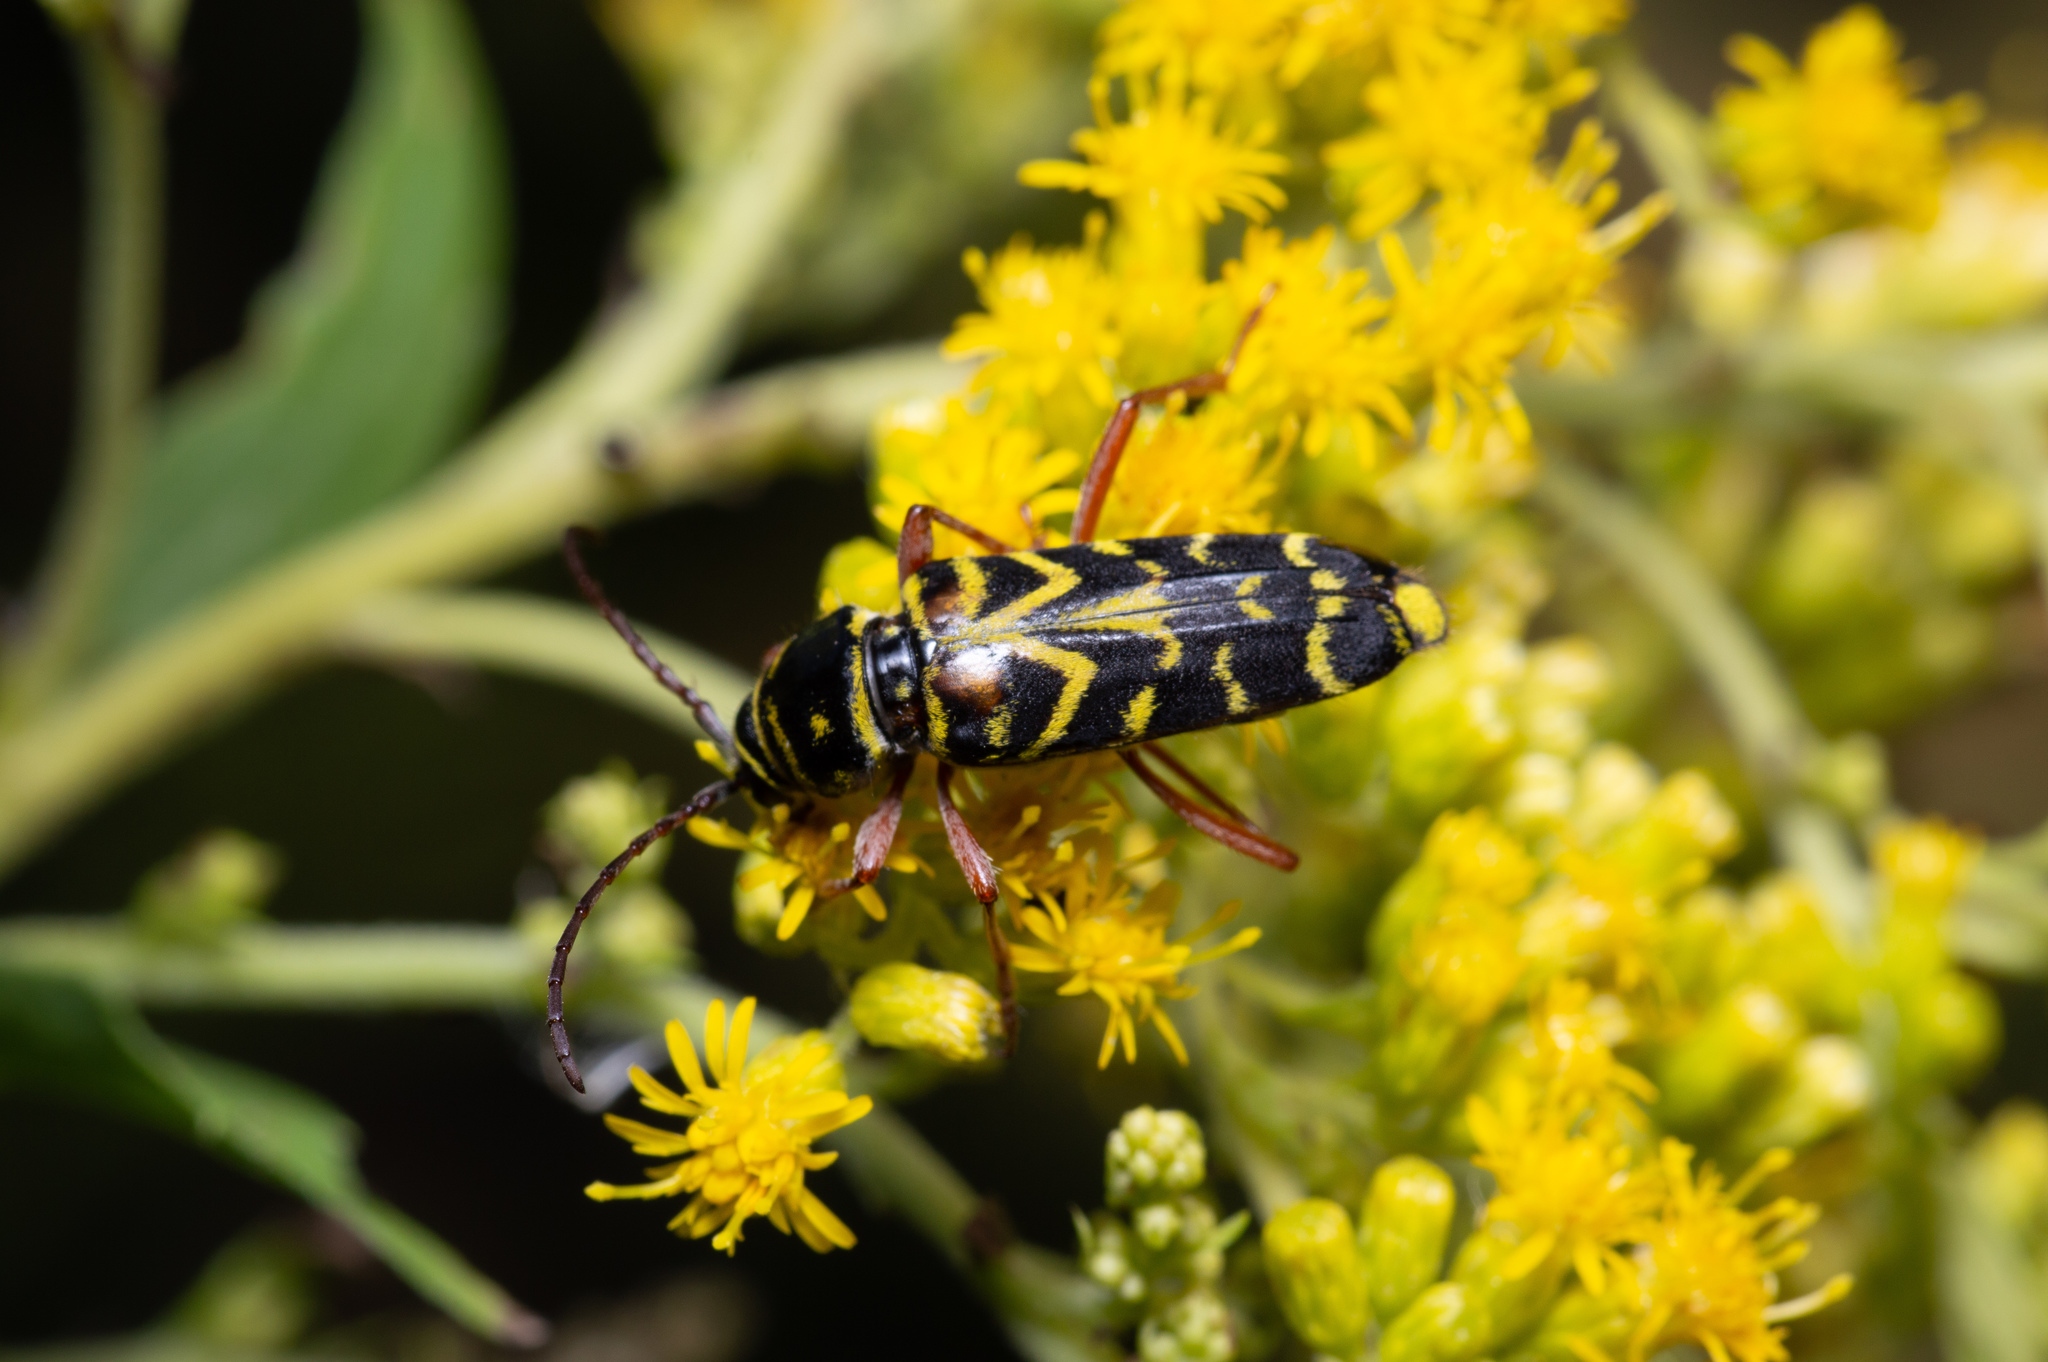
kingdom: Animalia
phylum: Arthropoda
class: Insecta
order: Coleoptera
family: Cerambycidae
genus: Megacyllene
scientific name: Megacyllene robiniae
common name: Locust borer
